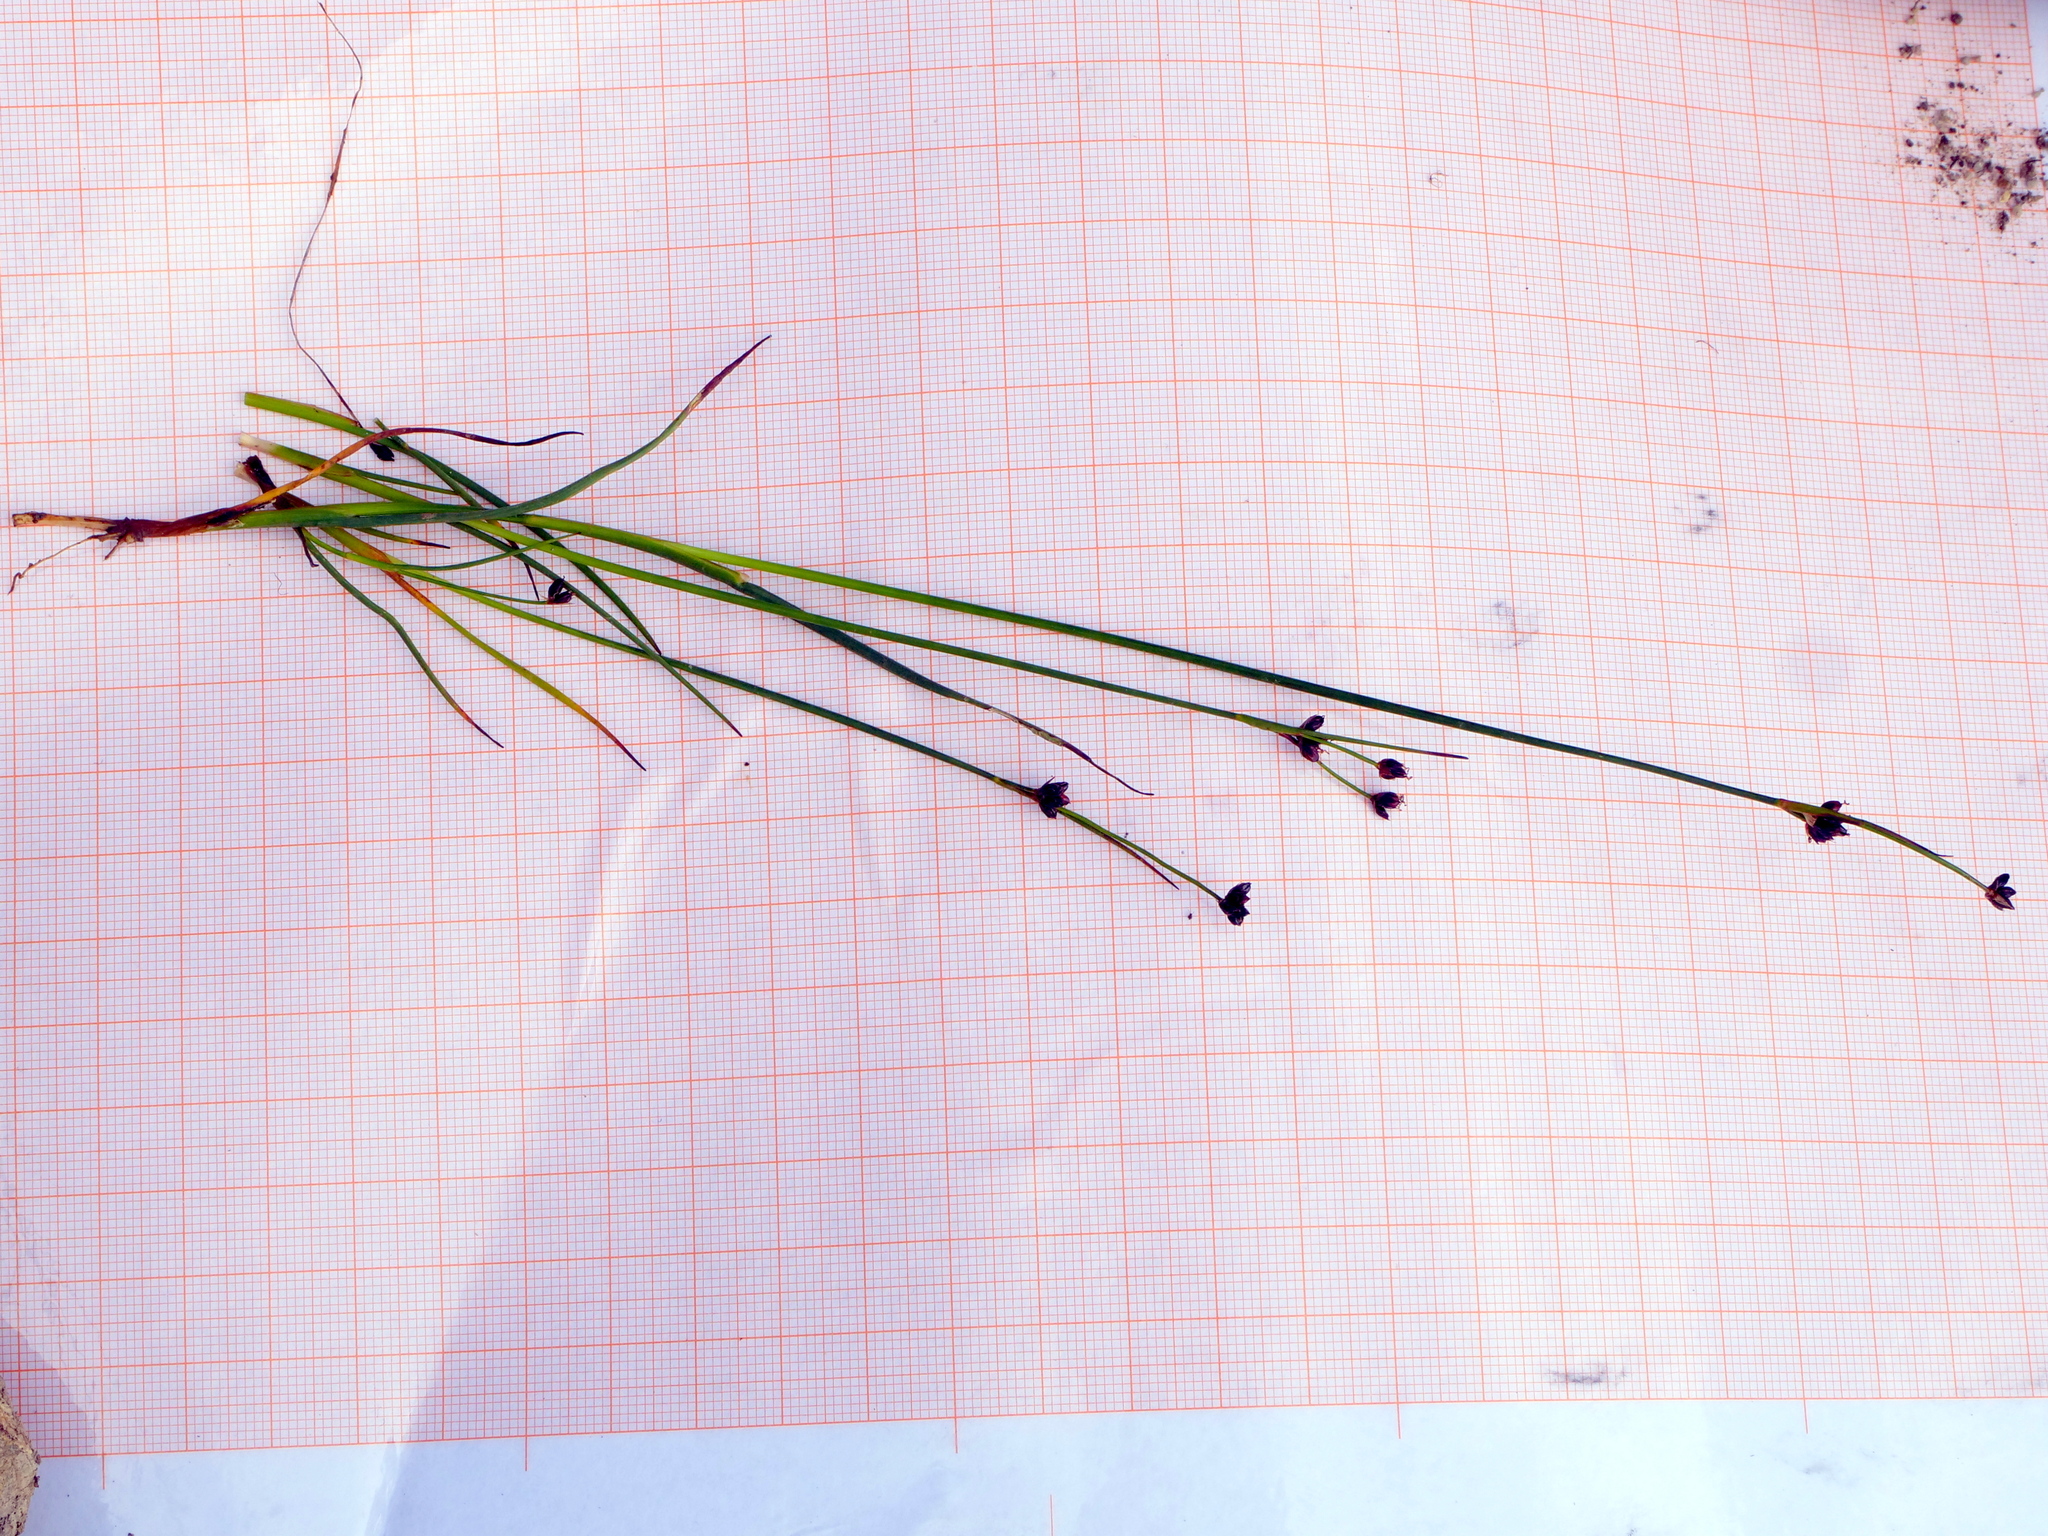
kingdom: Plantae
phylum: Tracheophyta
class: Liliopsida
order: Poales
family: Juncaceae
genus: Juncus
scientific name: Juncus alpinoarticulatus
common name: Alpine rush
